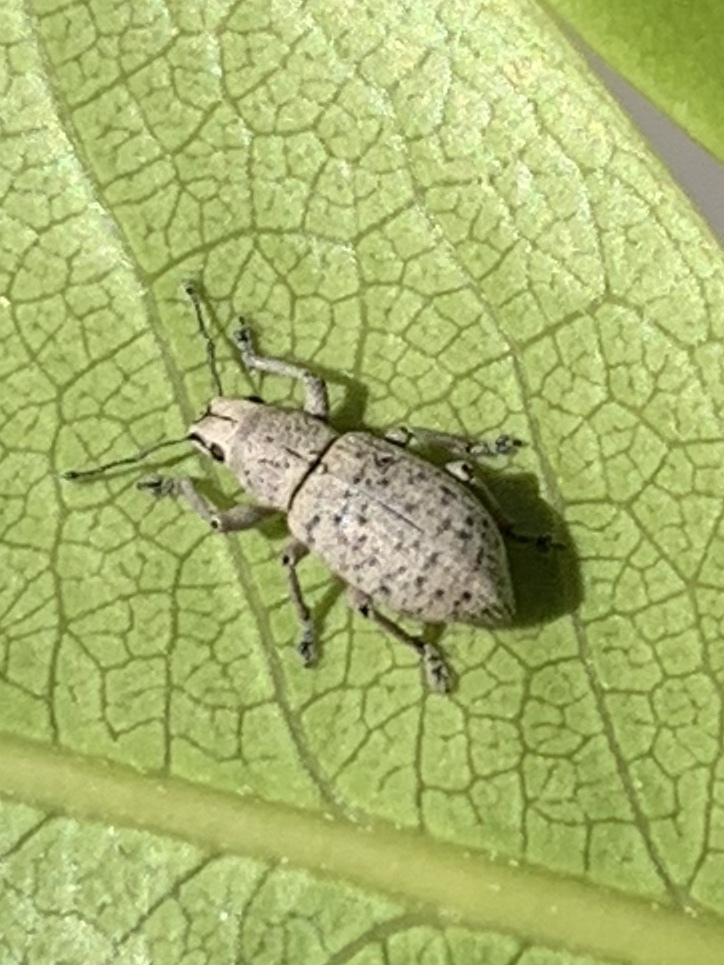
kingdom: Animalia
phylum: Arthropoda
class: Insecta
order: Coleoptera
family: Curculionidae
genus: Artipus
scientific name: Artipus floridanus
